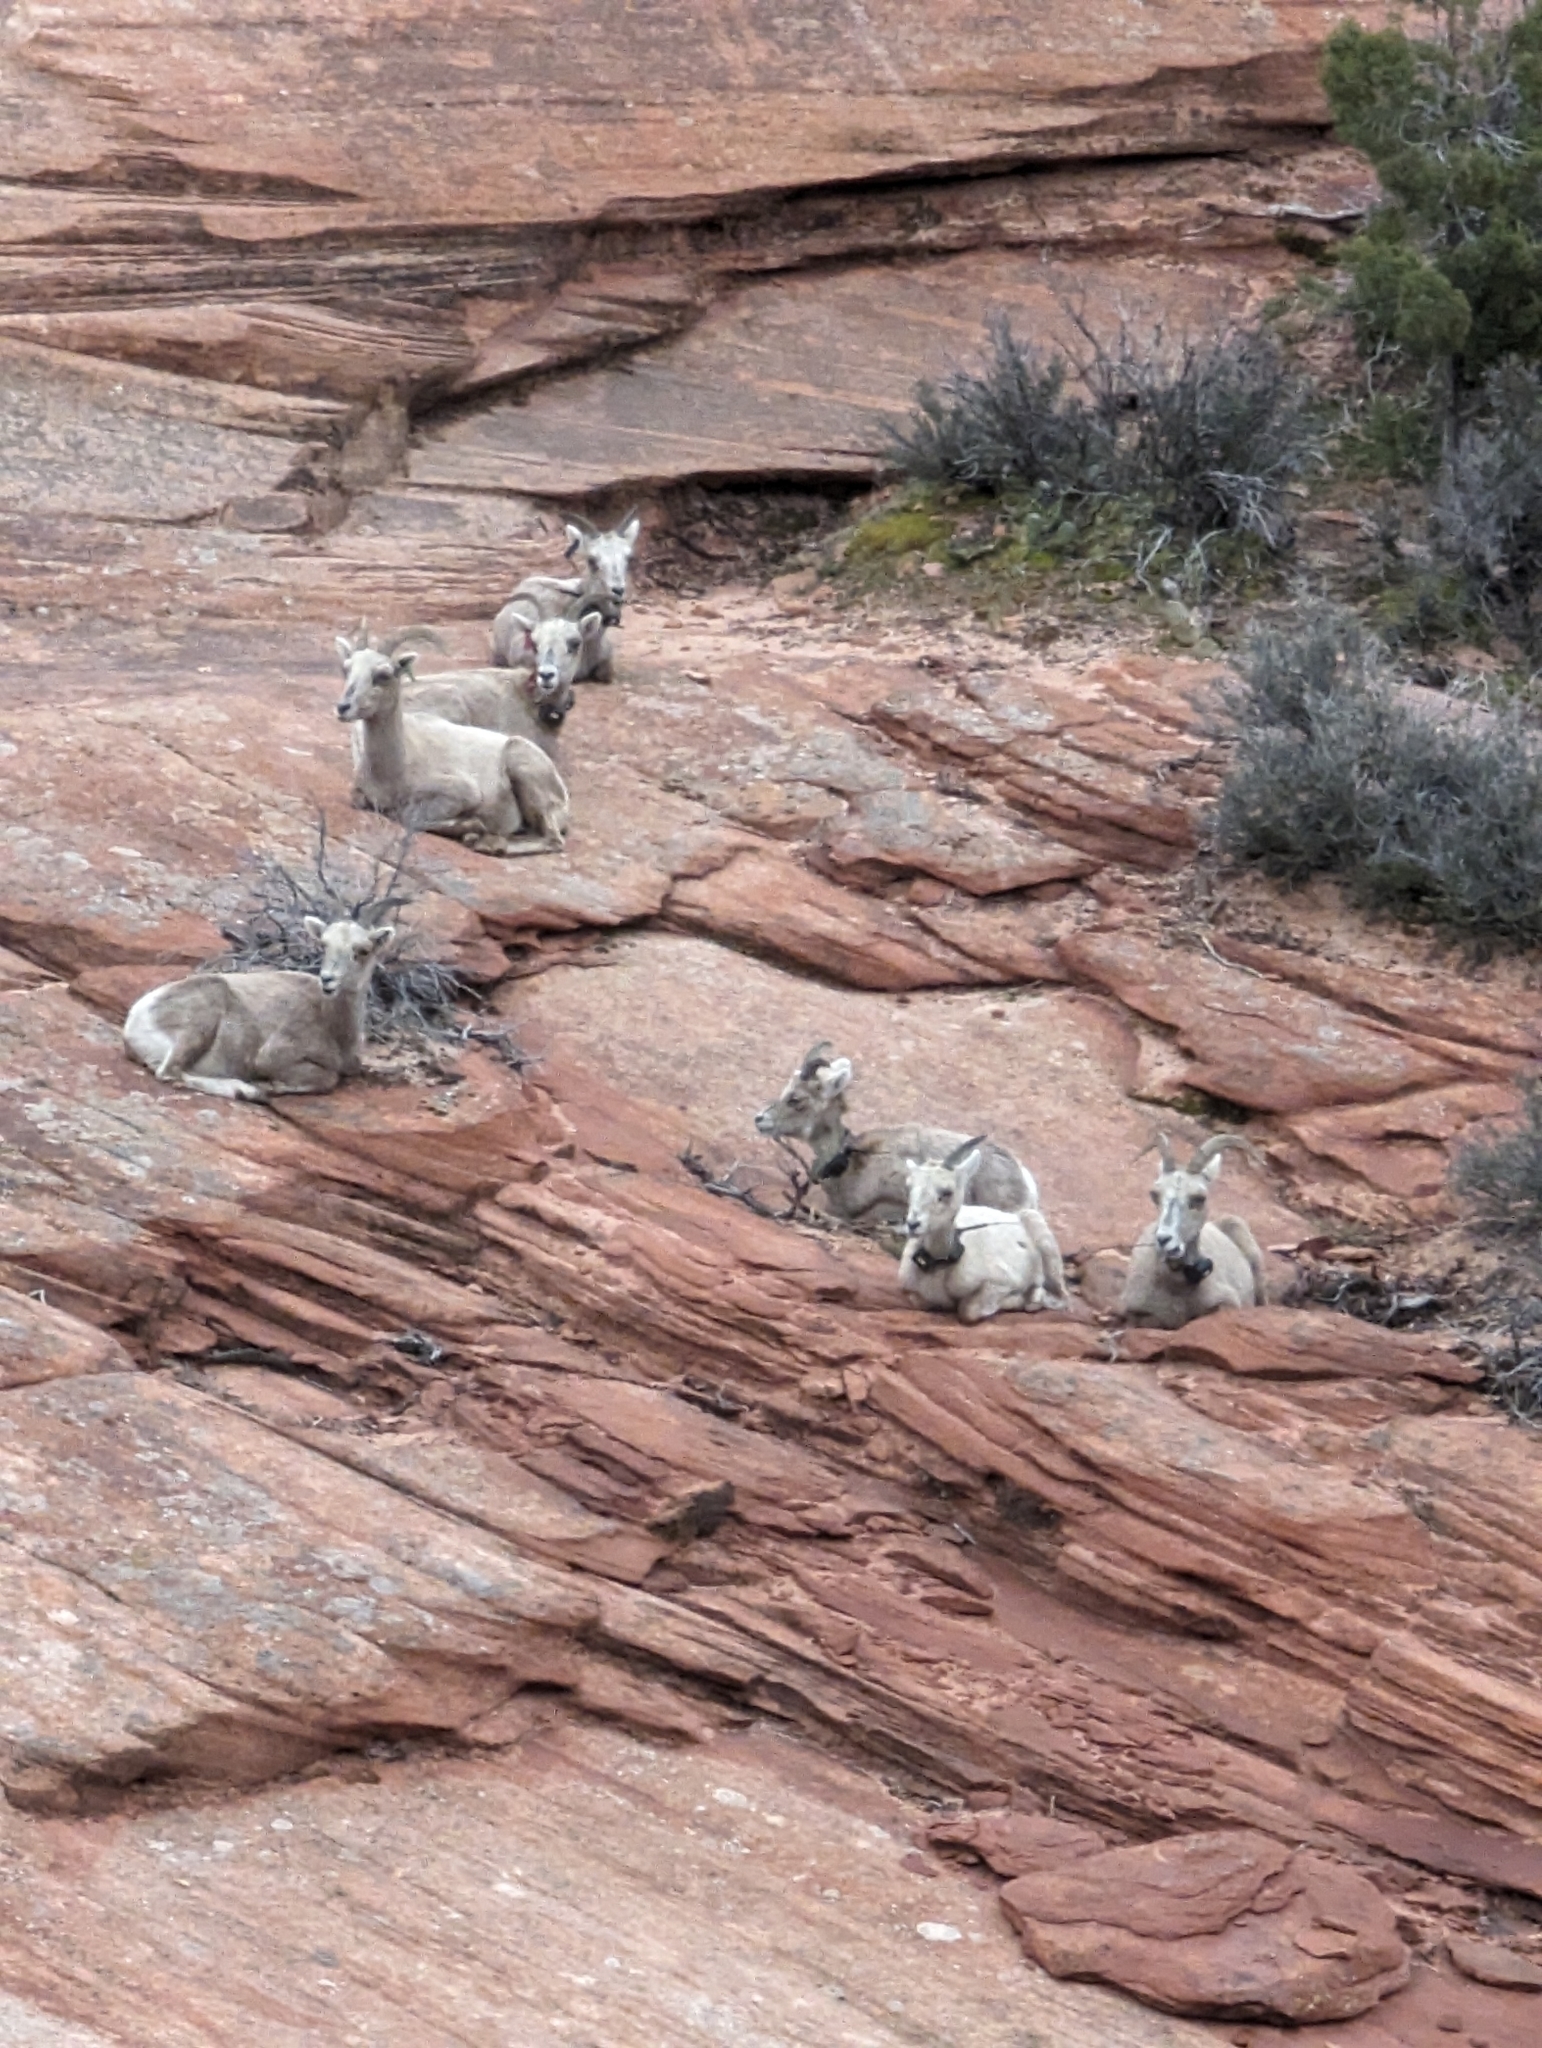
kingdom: Animalia
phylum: Chordata
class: Mammalia
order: Artiodactyla
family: Bovidae
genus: Ovis
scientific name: Ovis canadensis
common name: Bighorn sheep
